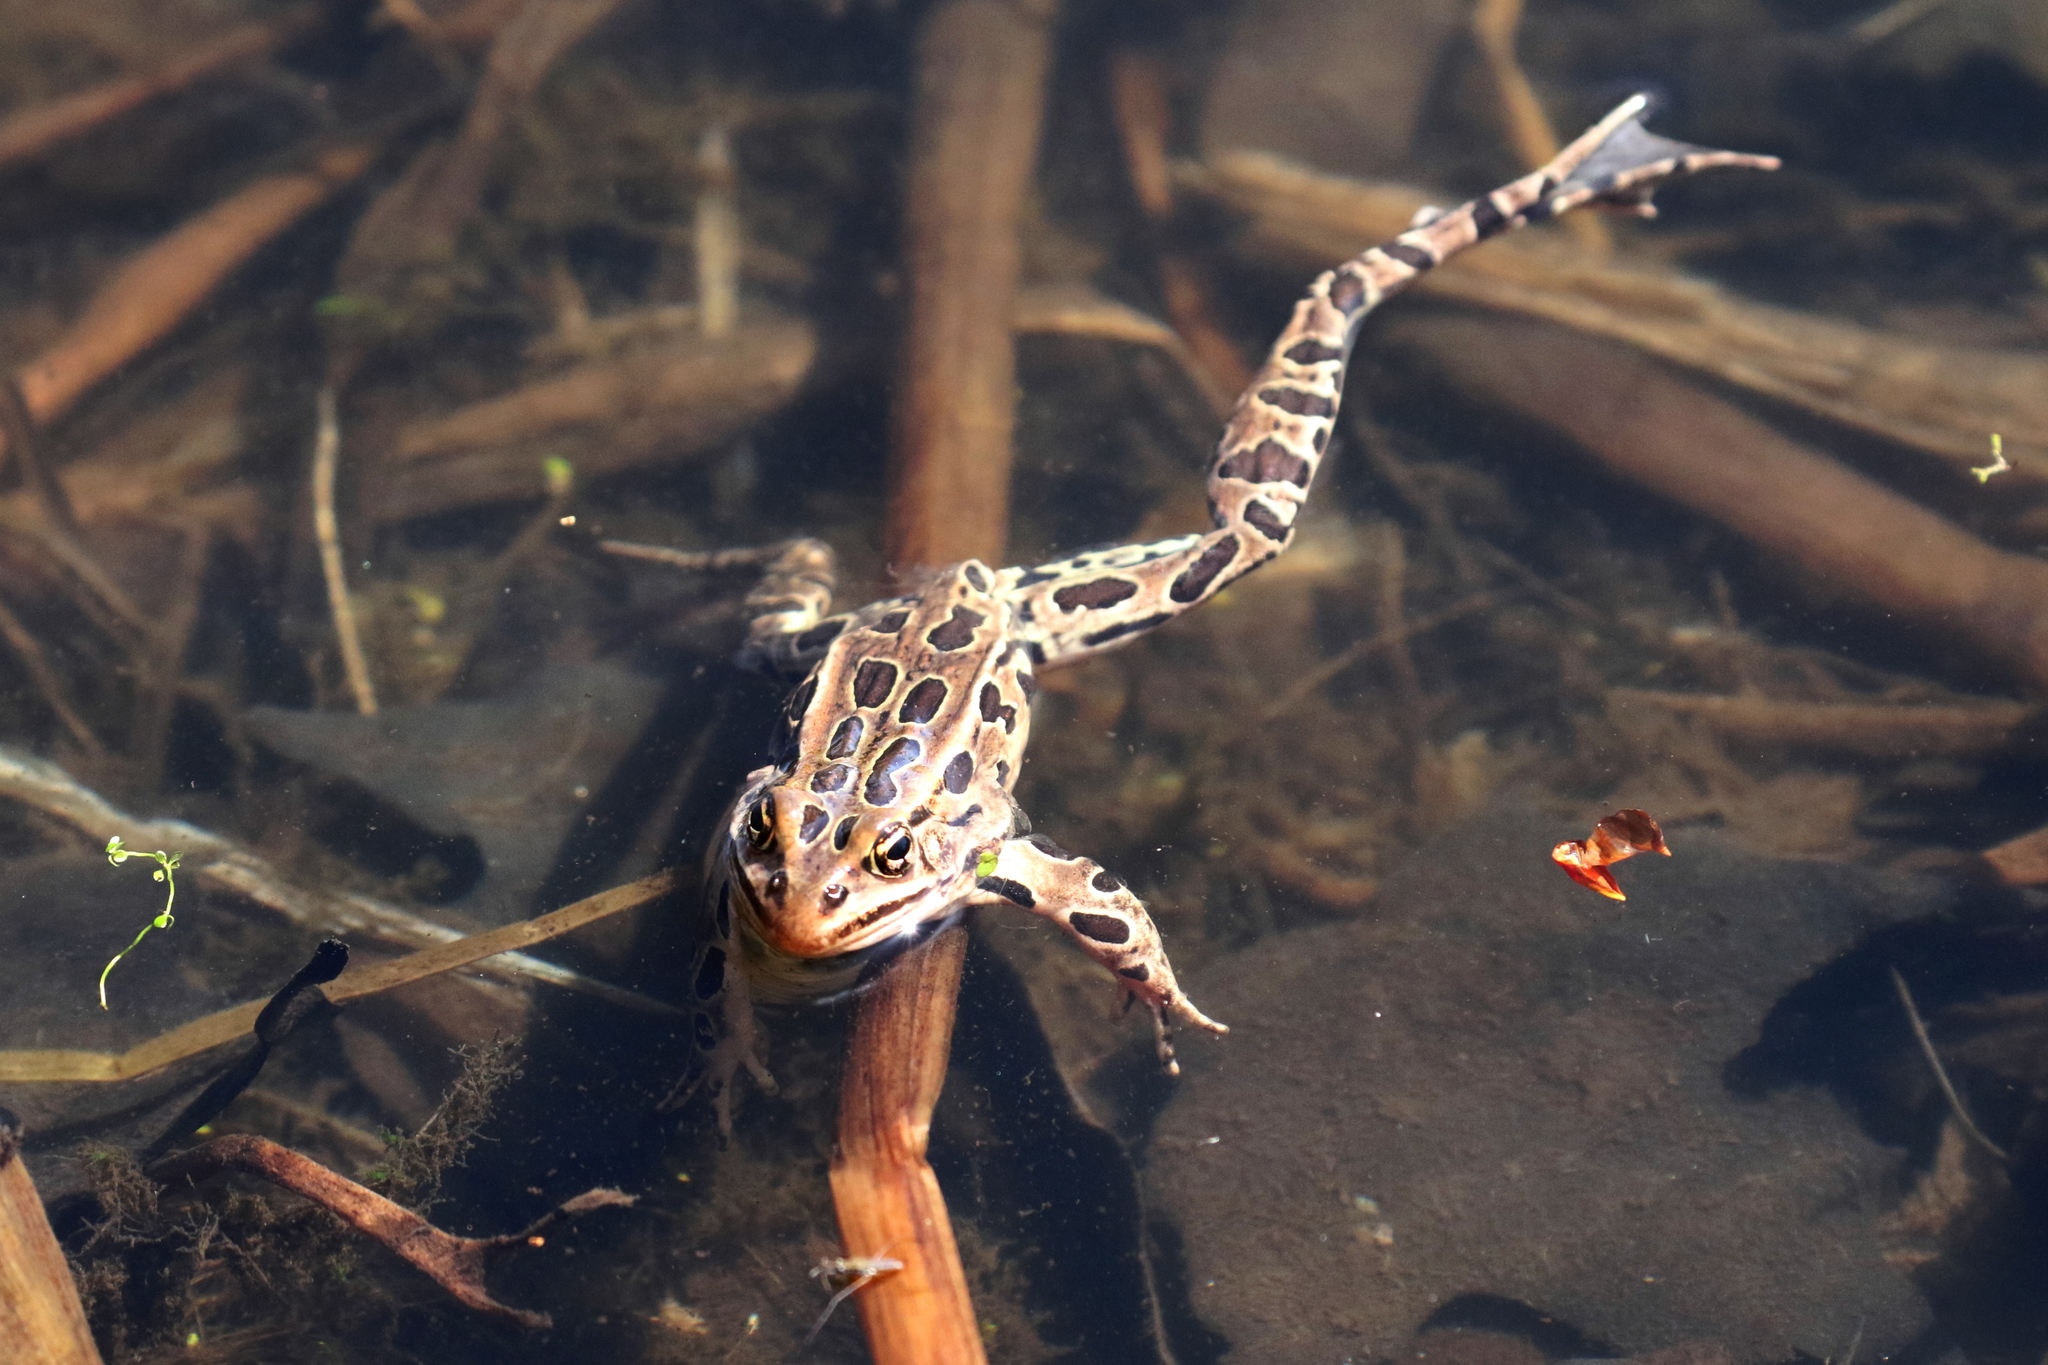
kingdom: Animalia
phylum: Chordata
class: Amphibia
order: Anura
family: Ranidae
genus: Lithobates
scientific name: Lithobates pipiens
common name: Northern leopard frog
